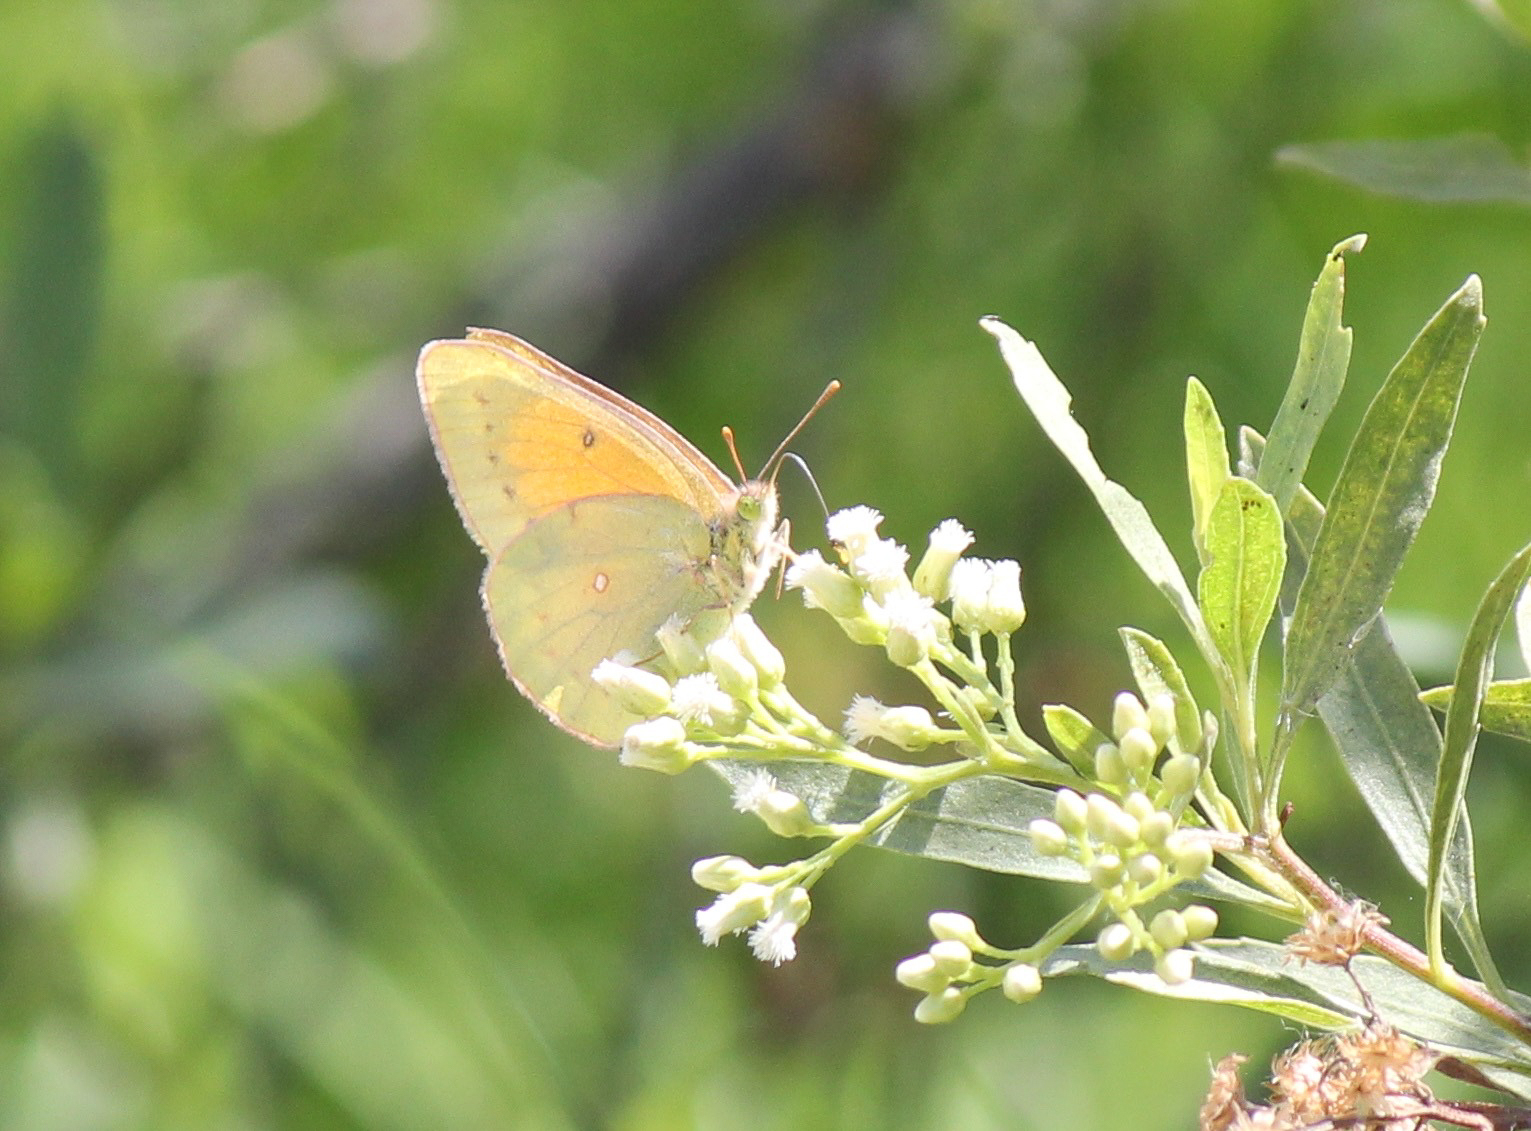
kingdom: Animalia
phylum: Arthropoda
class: Insecta
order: Lepidoptera
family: Pieridae
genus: Colias
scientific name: Colias lesbia
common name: Lesbia clouded yellow
